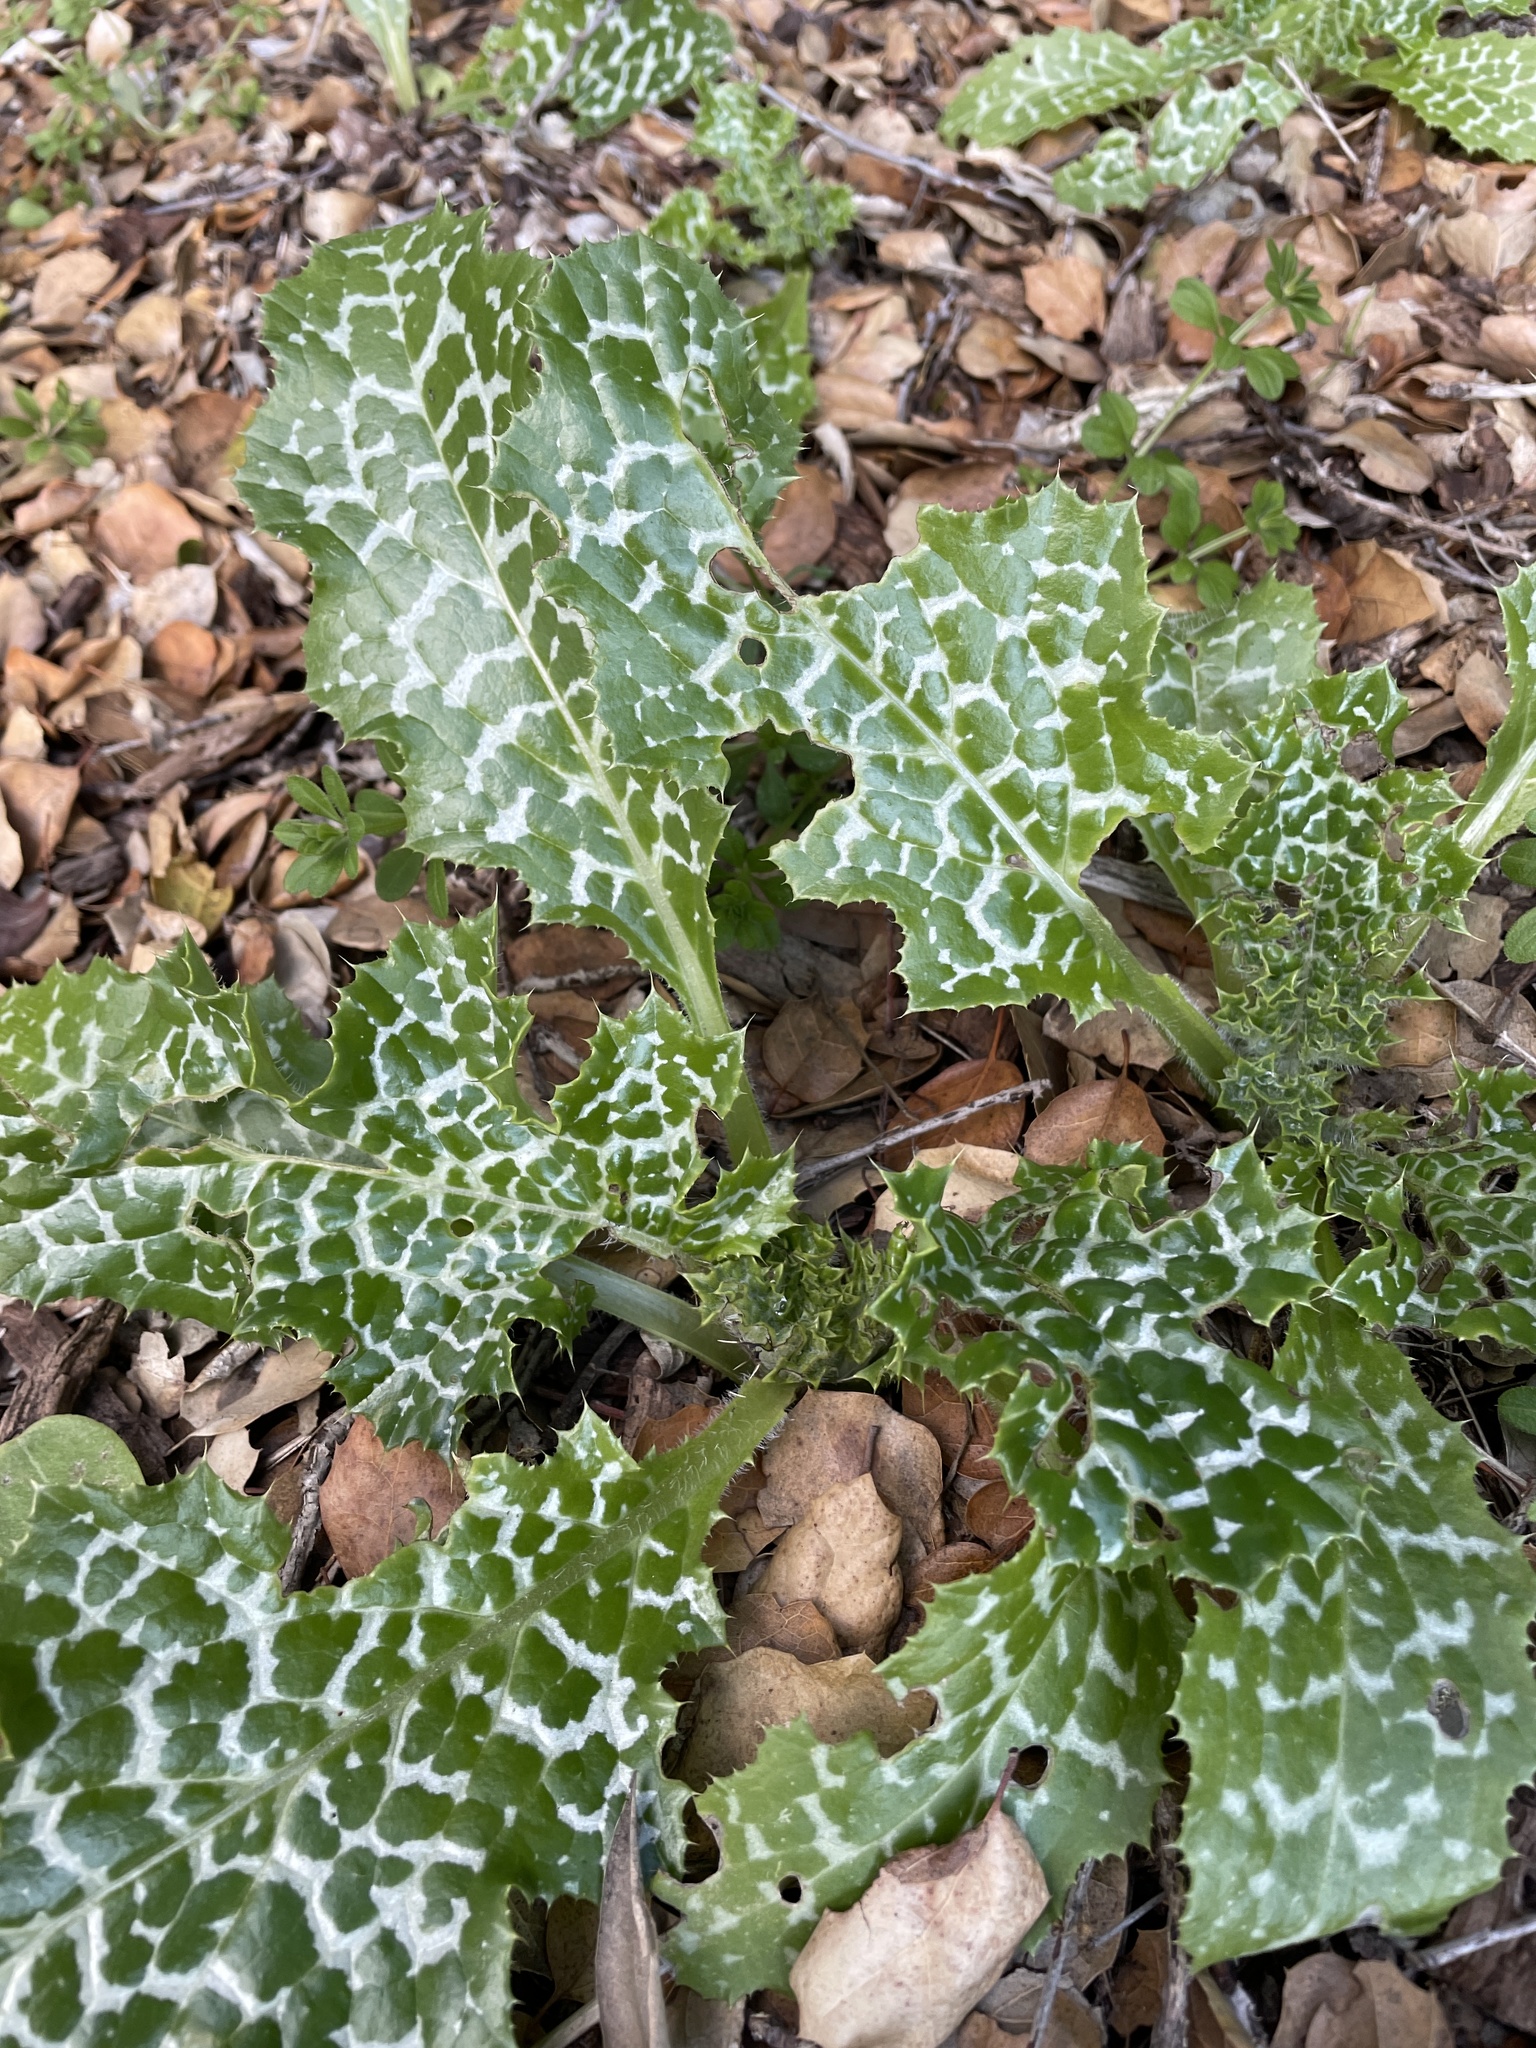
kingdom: Plantae
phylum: Tracheophyta
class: Magnoliopsida
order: Asterales
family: Asteraceae
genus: Silybum
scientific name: Silybum marianum
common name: Milk thistle
